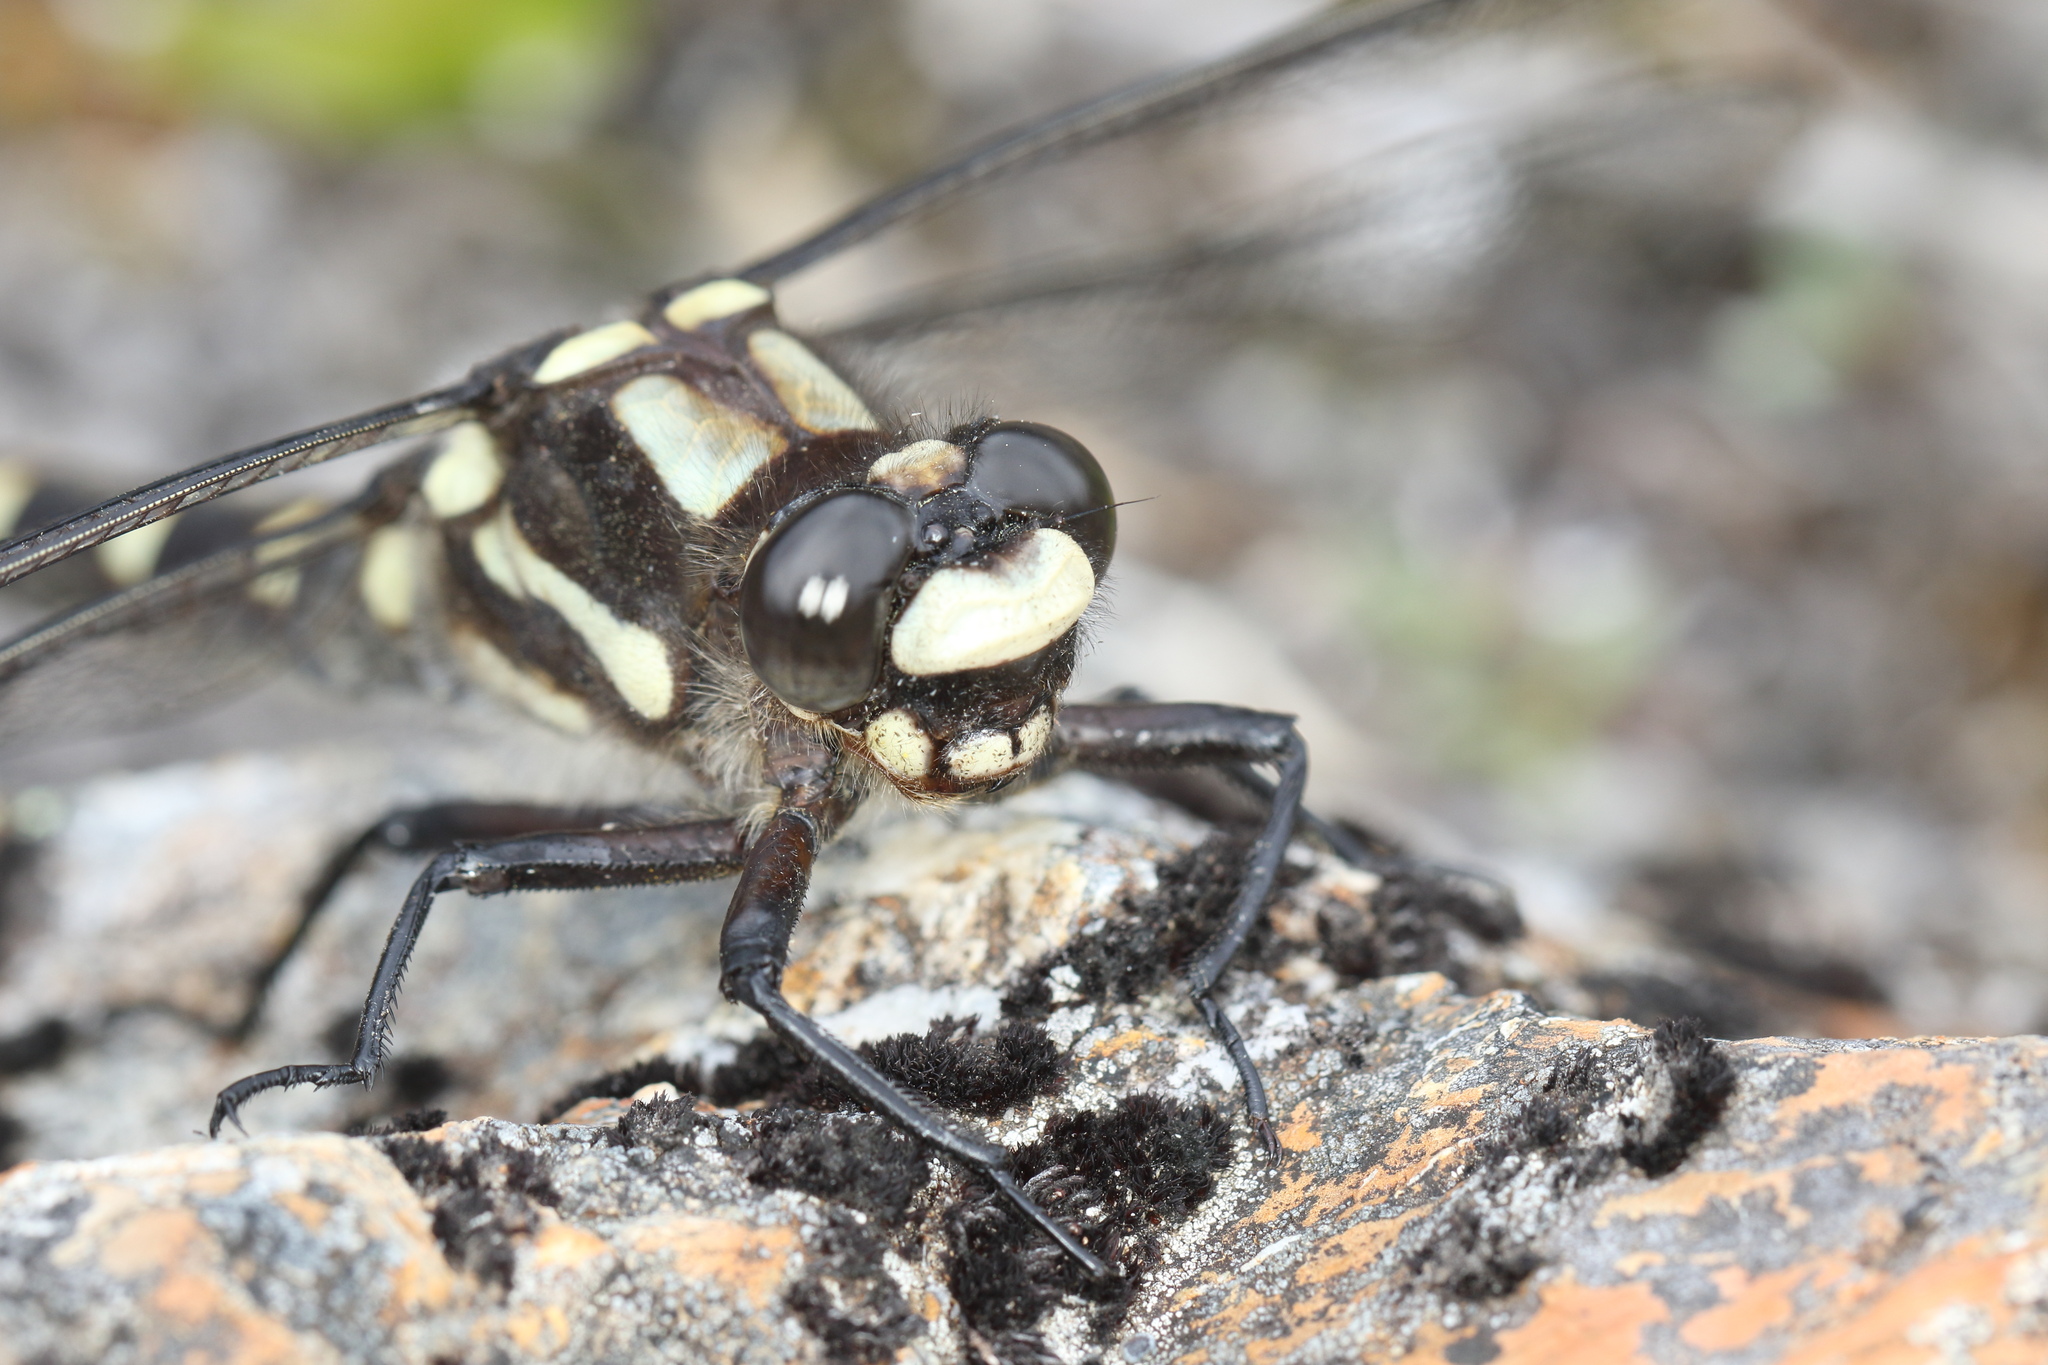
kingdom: Animalia
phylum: Arthropoda
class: Insecta
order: Odonata
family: Petaluridae
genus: Uropetala
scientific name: Uropetala chiltoni
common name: Mountain giant dragonfly
